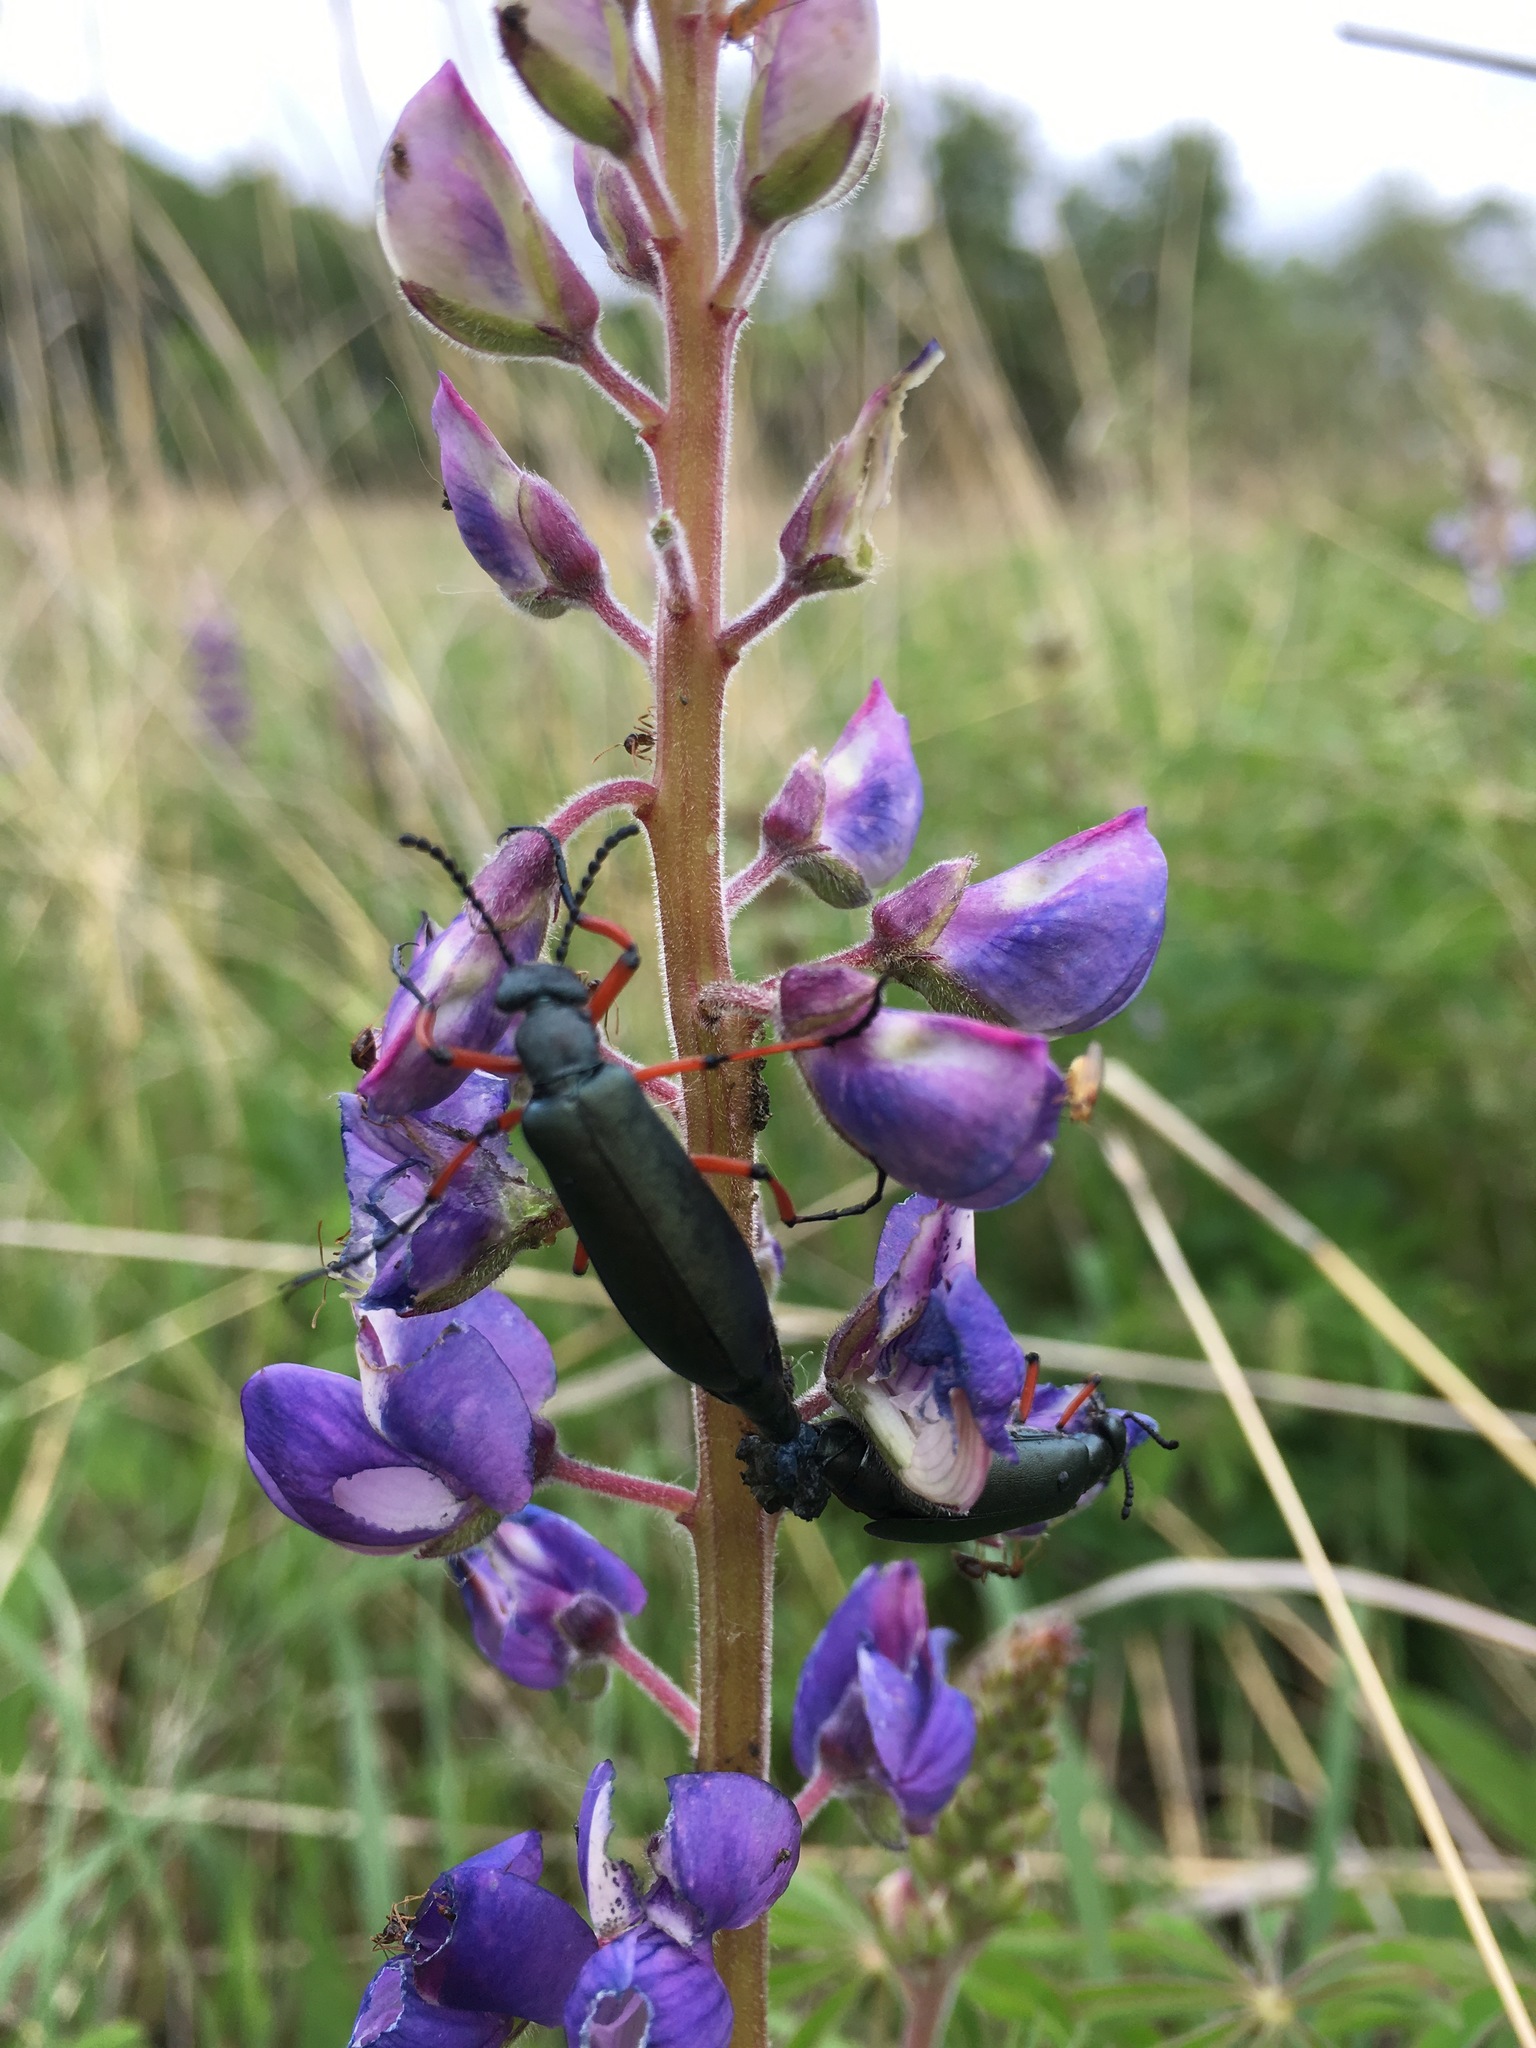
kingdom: Animalia
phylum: Arthropoda
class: Insecta
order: Coleoptera
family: Meloidae
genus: Lytta
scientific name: Lytta sayi
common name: Say's blister beetle
